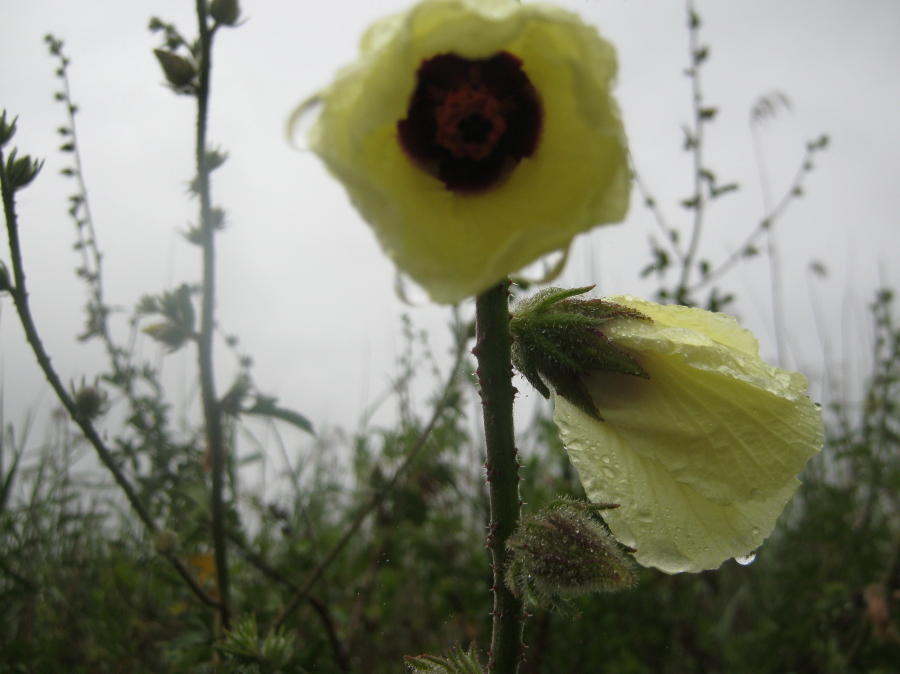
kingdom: Plantae
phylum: Tracheophyta
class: Magnoliopsida
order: Malvales
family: Malvaceae
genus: Hibiscus
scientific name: Hibiscus diversifolius
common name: Cape hibiscus
